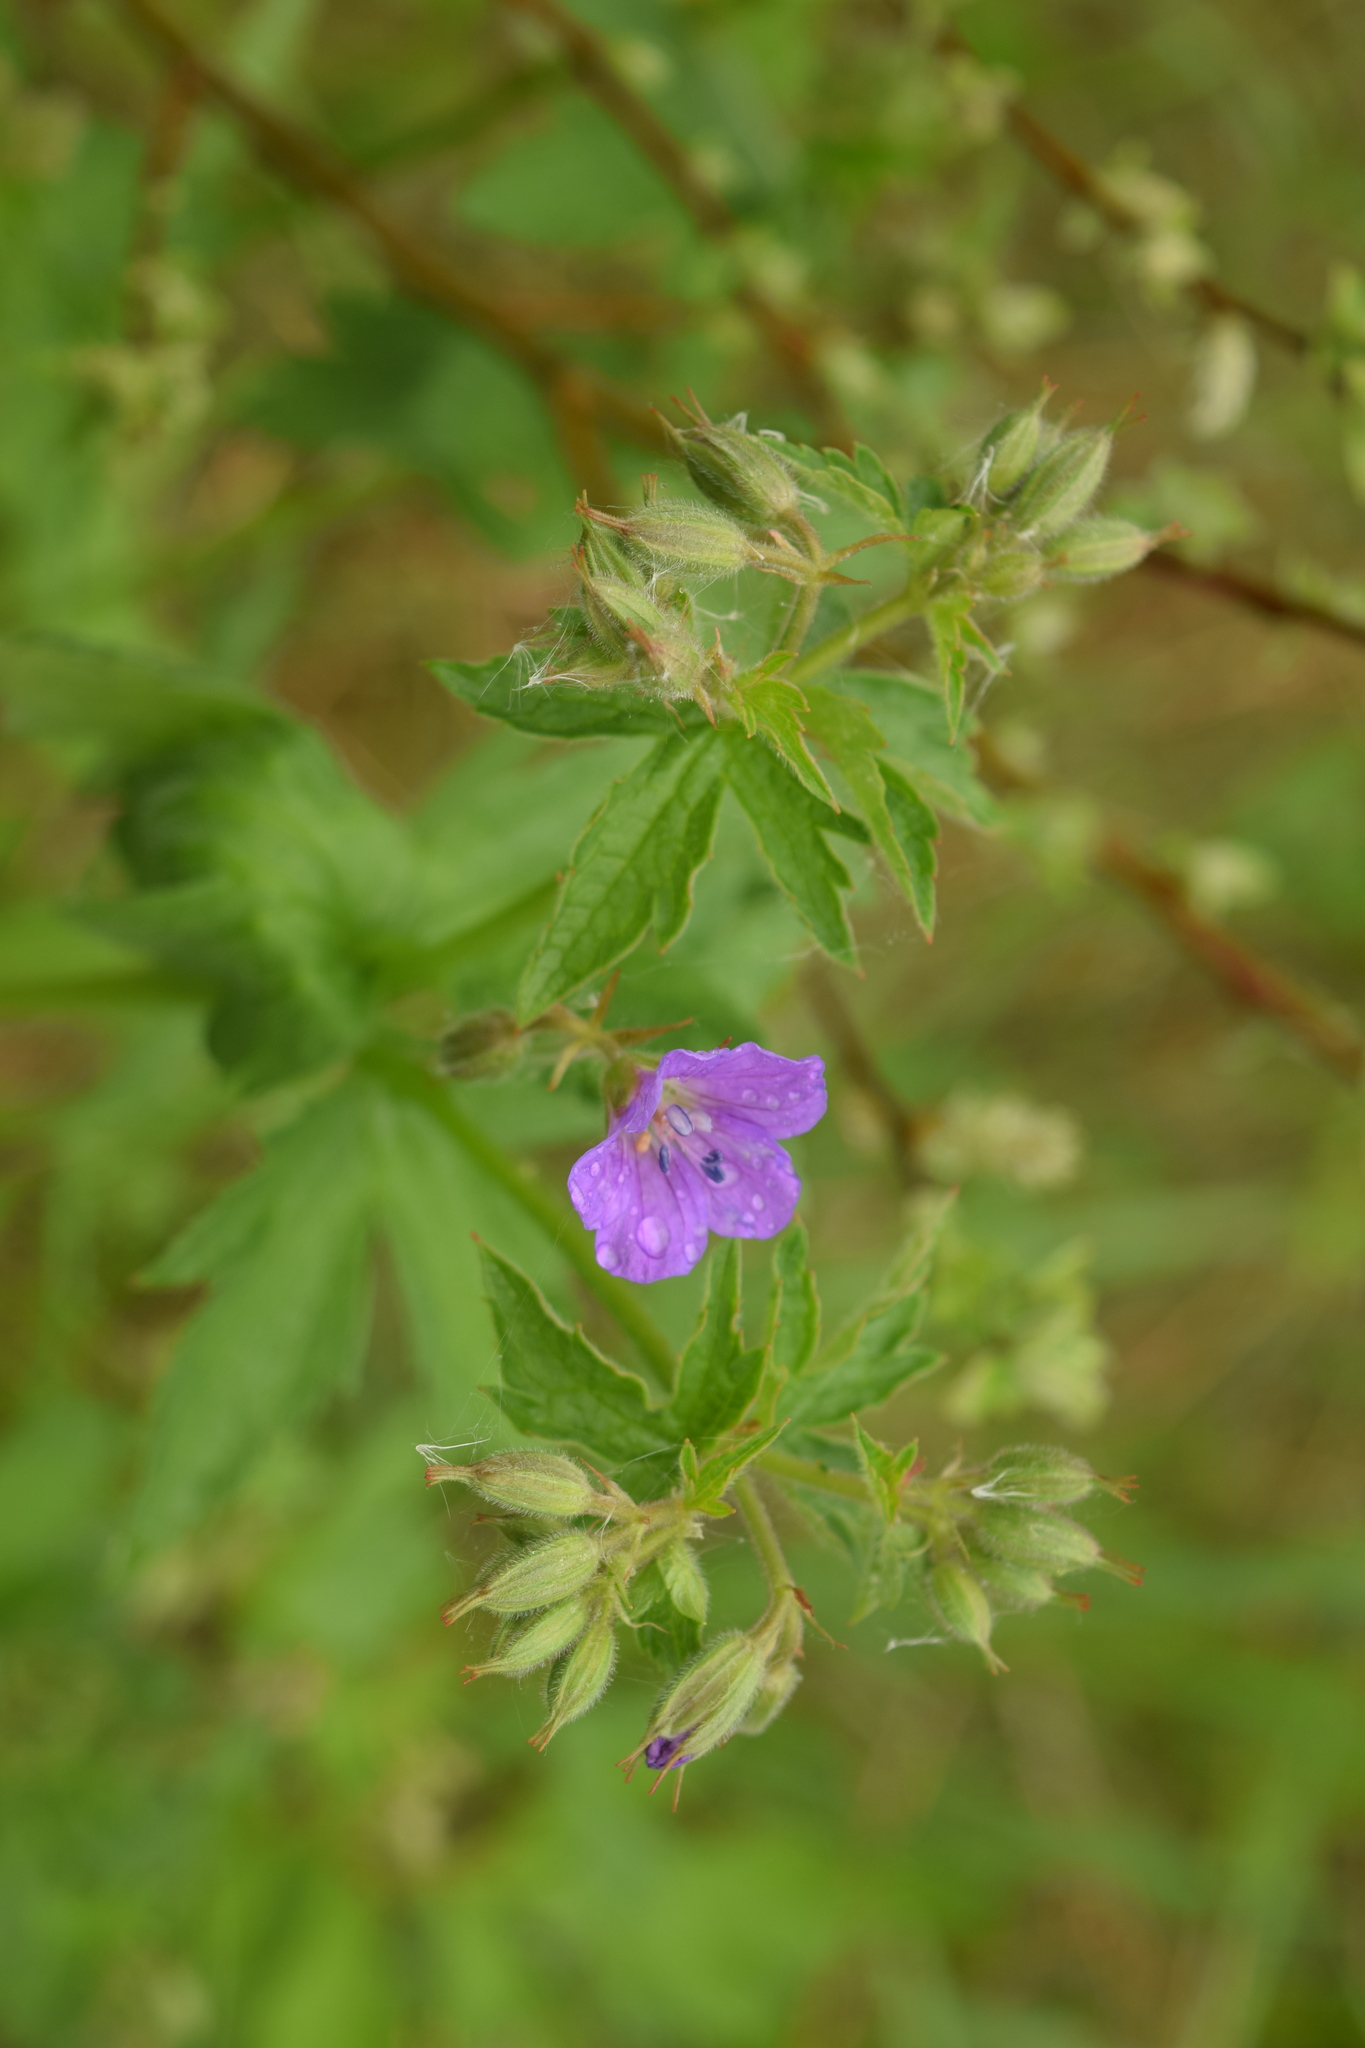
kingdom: Plantae
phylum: Tracheophyta
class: Magnoliopsida
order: Geraniales
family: Geraniaceae
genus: Geranium
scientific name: Geranium sylvaticum
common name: Wood crane's-bill
